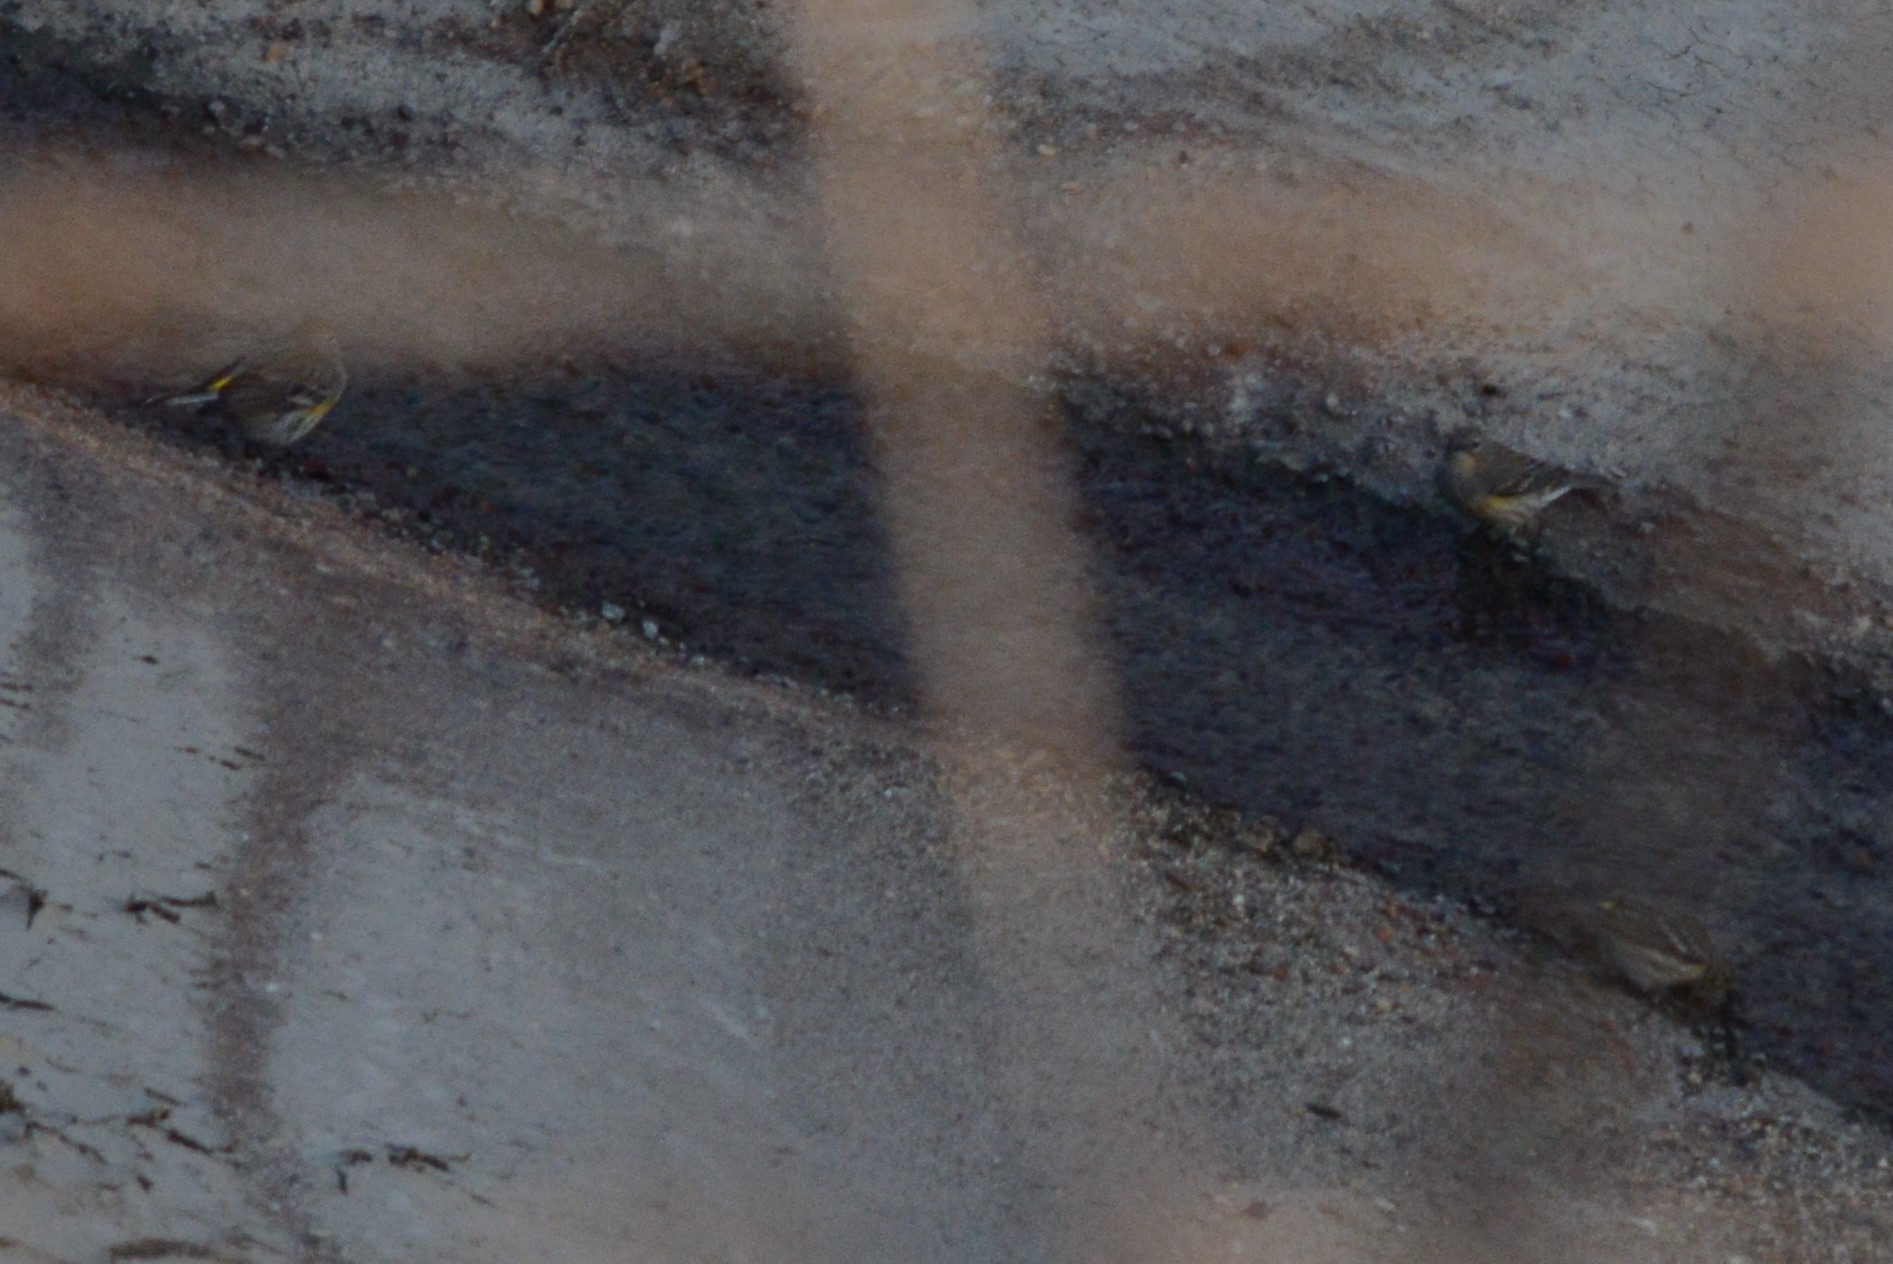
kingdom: Animalia
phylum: Chordata
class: Aves
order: Passeriformes
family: Parulidae
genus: Setophaga
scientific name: Setophaga auduboni
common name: Audubon's warbler
